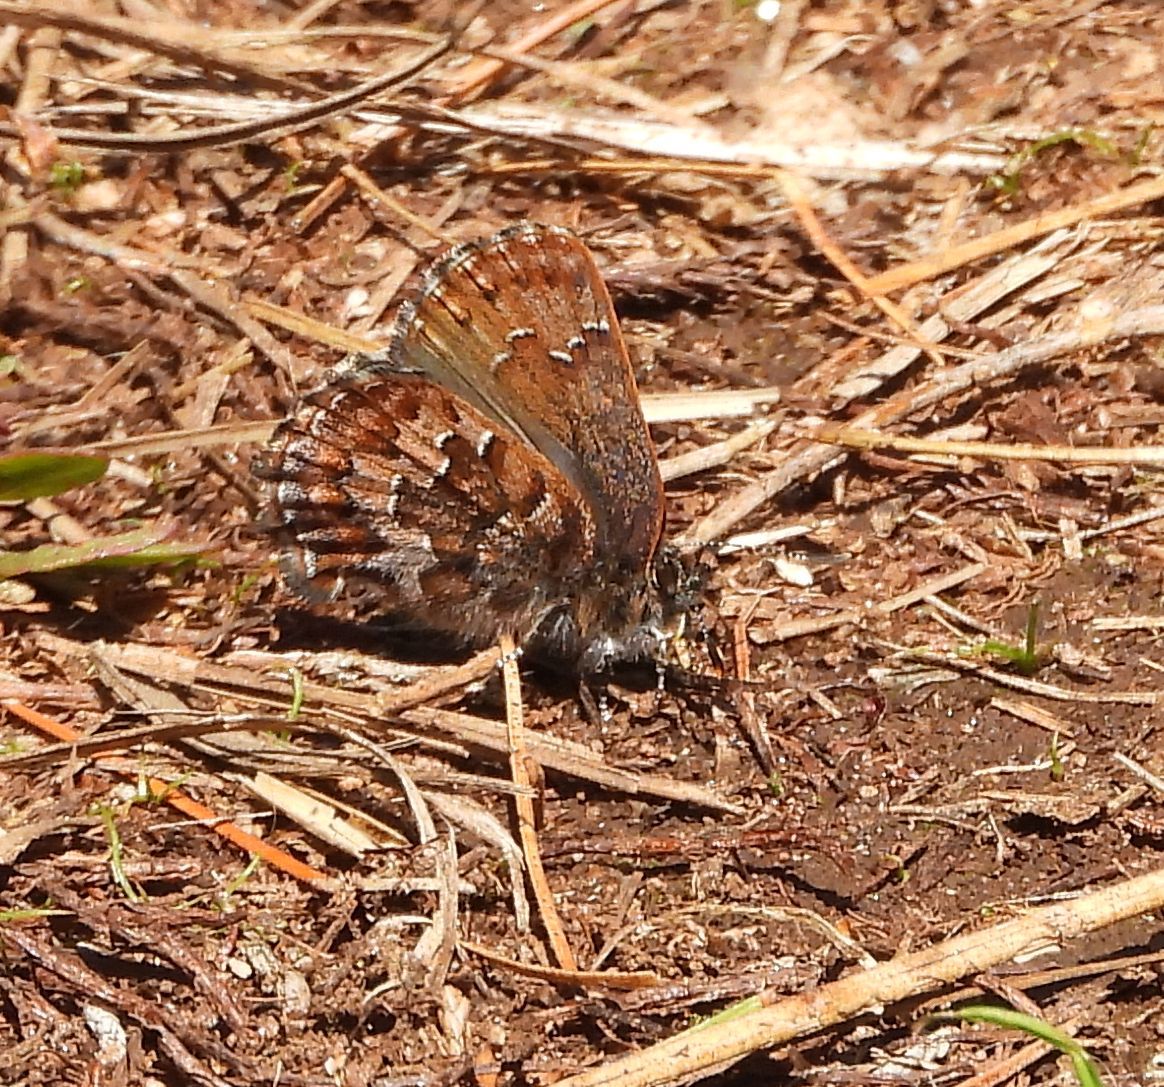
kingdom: Animalia
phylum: Arthropoda
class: Insecta
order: Lepidoptera
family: Lycaenidae
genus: Incisalia
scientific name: Incisalia niphon
